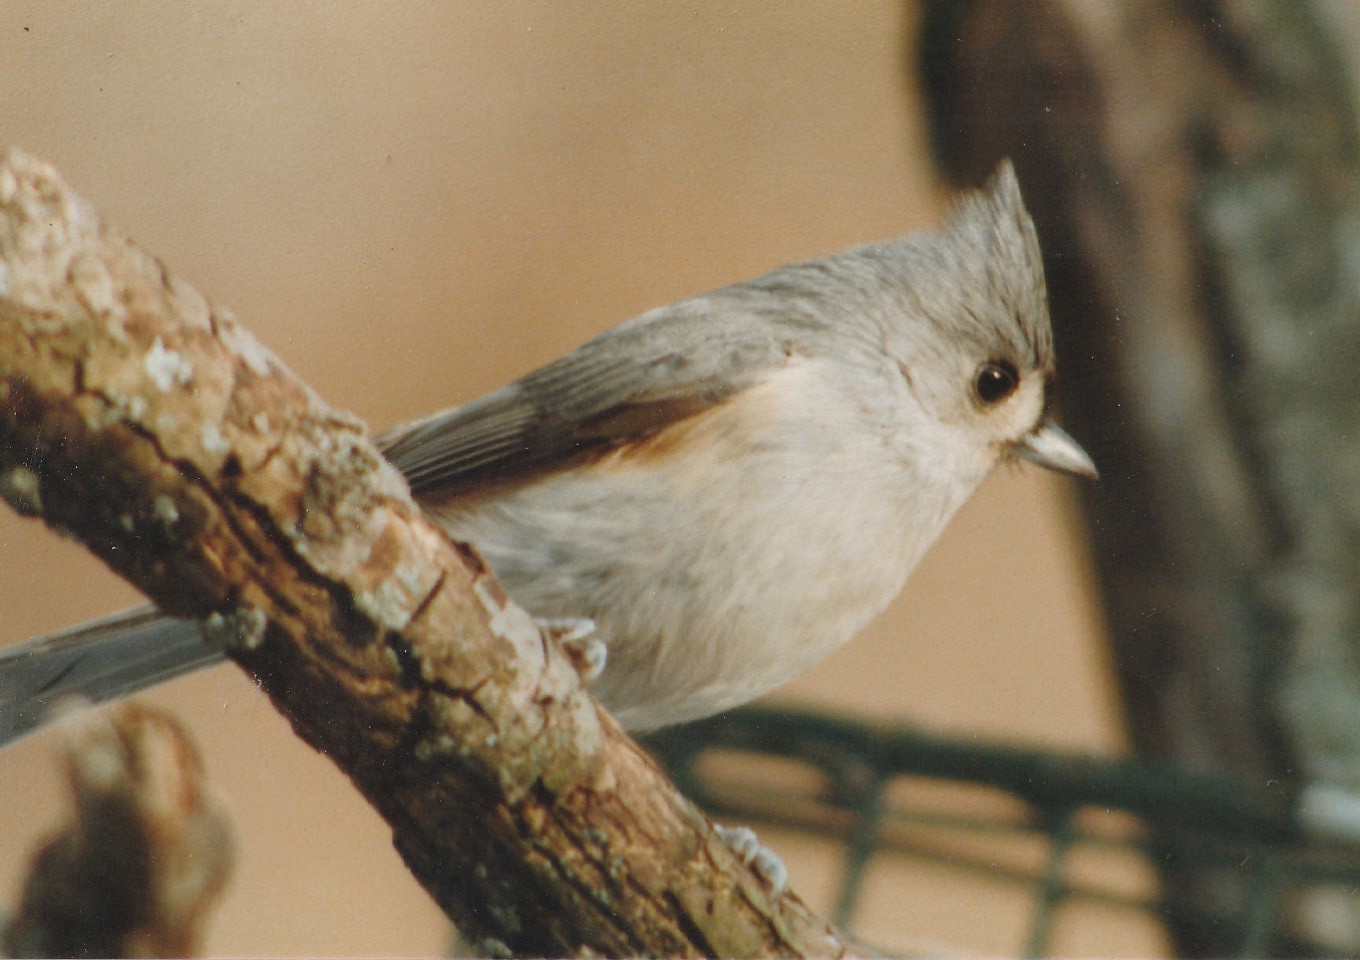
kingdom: Animalia
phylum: Chordata
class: Aves
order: Passeriformes
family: Paridae
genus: Baeolophus
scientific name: Baeolophus bicolor
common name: Tufted titmouse
